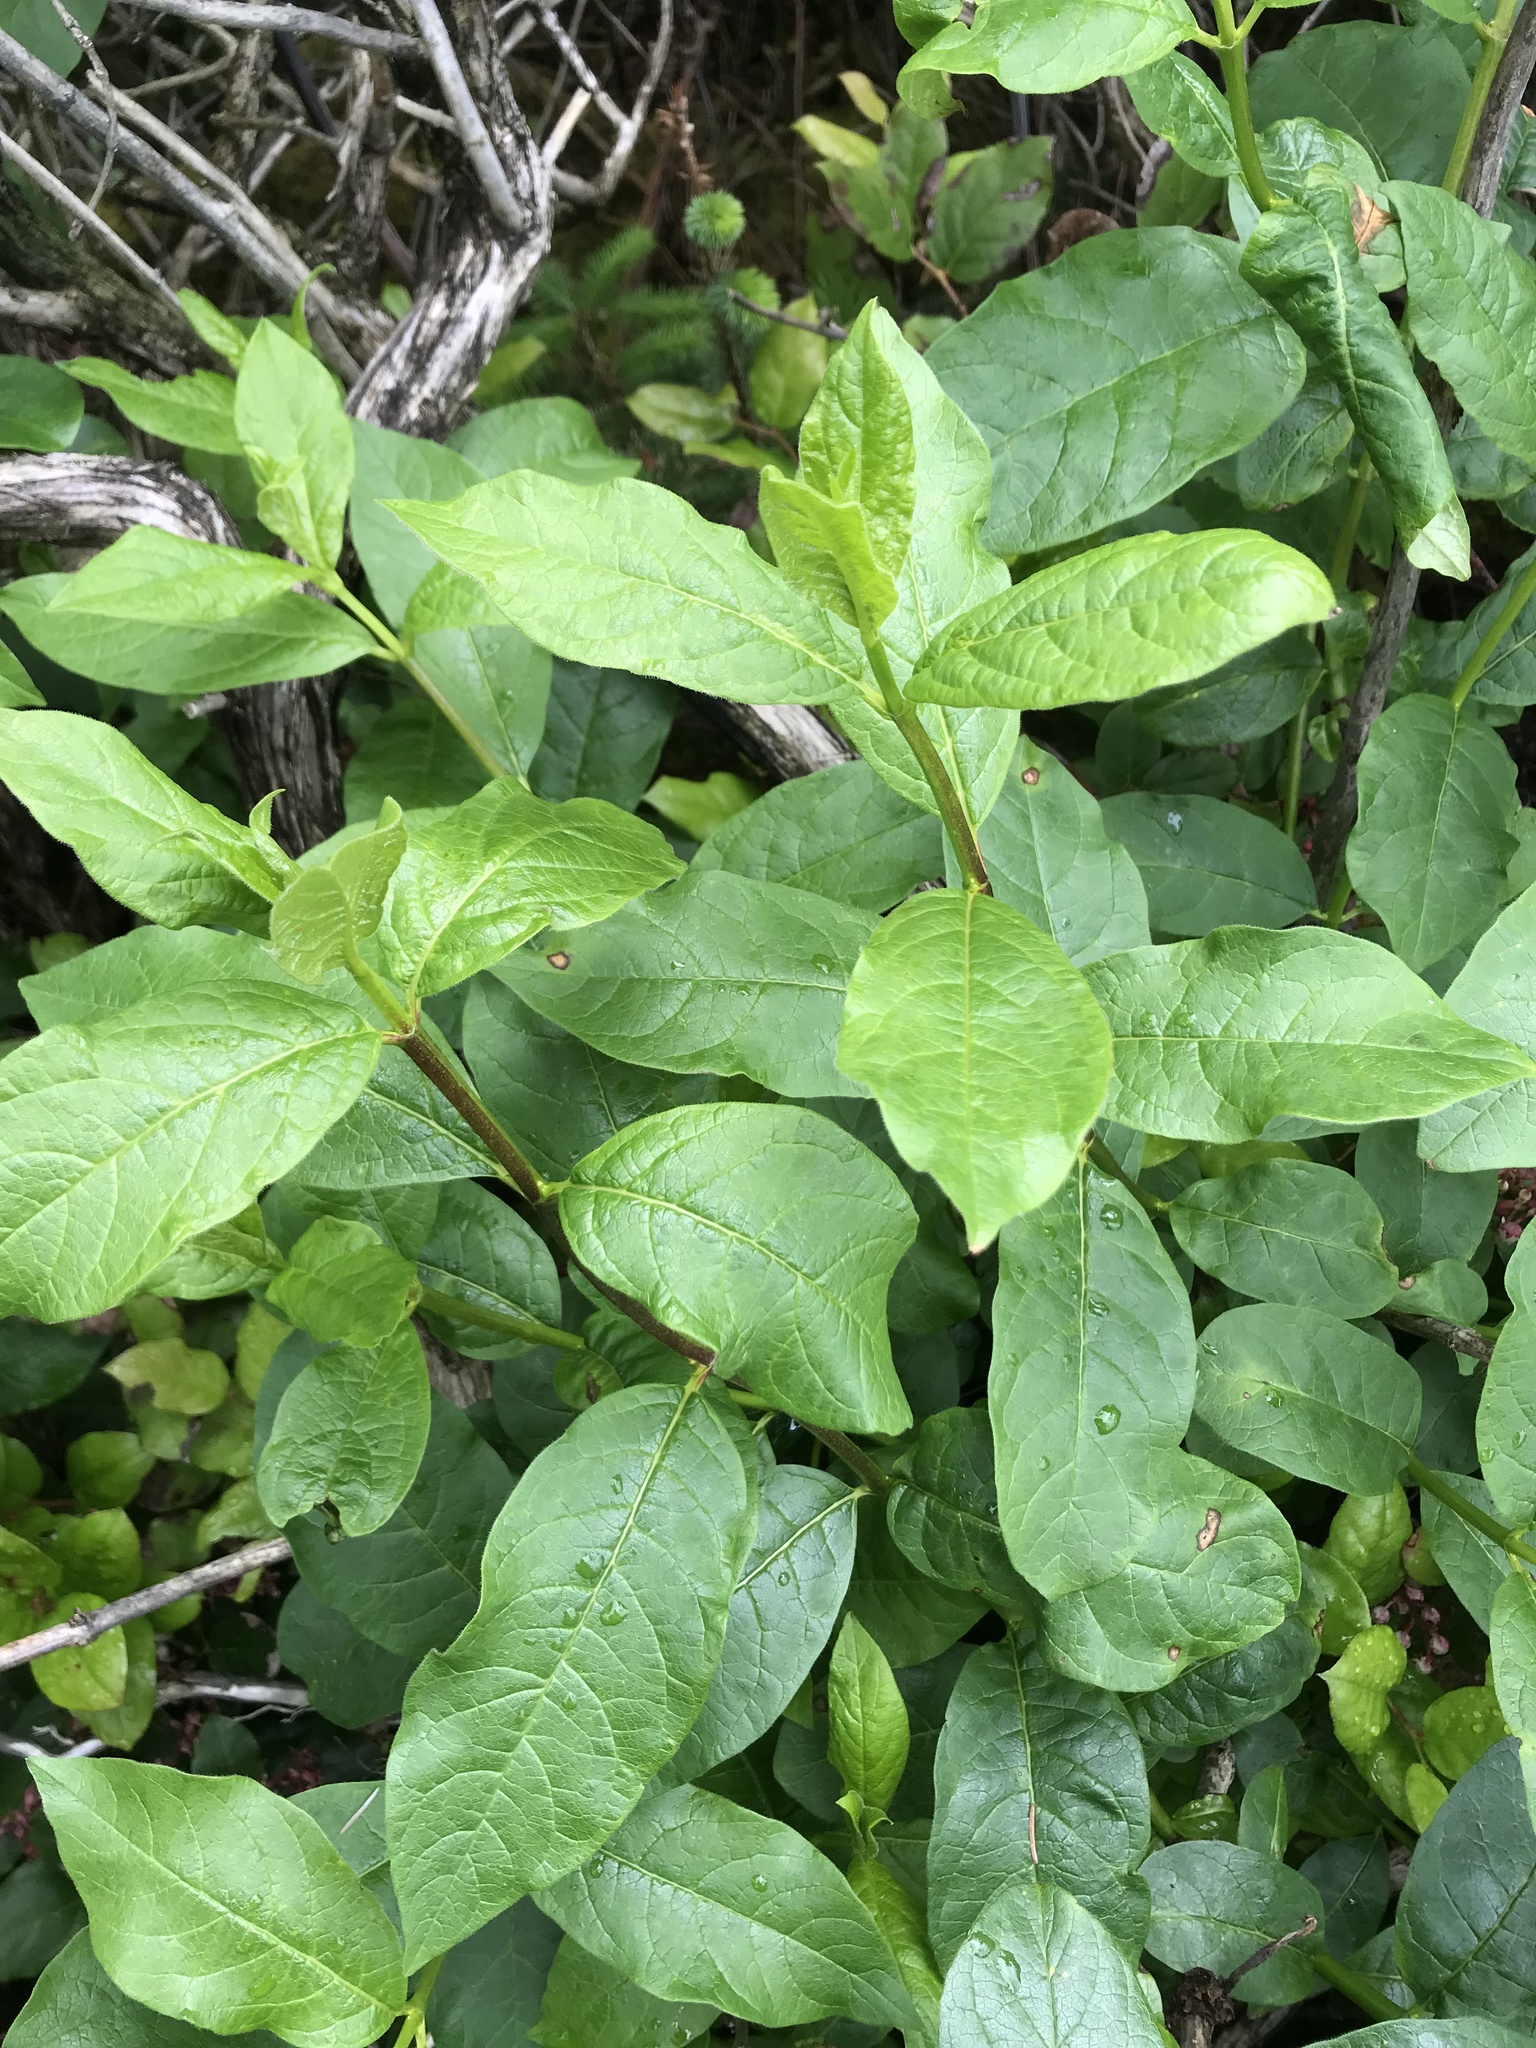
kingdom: Plantae
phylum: Tracheophyta
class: Magnoliopsida
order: Dipsacales
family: Caprifoliaceae
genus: Lonicera
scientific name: Lonicera involucrata
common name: Californian honeysuckle
